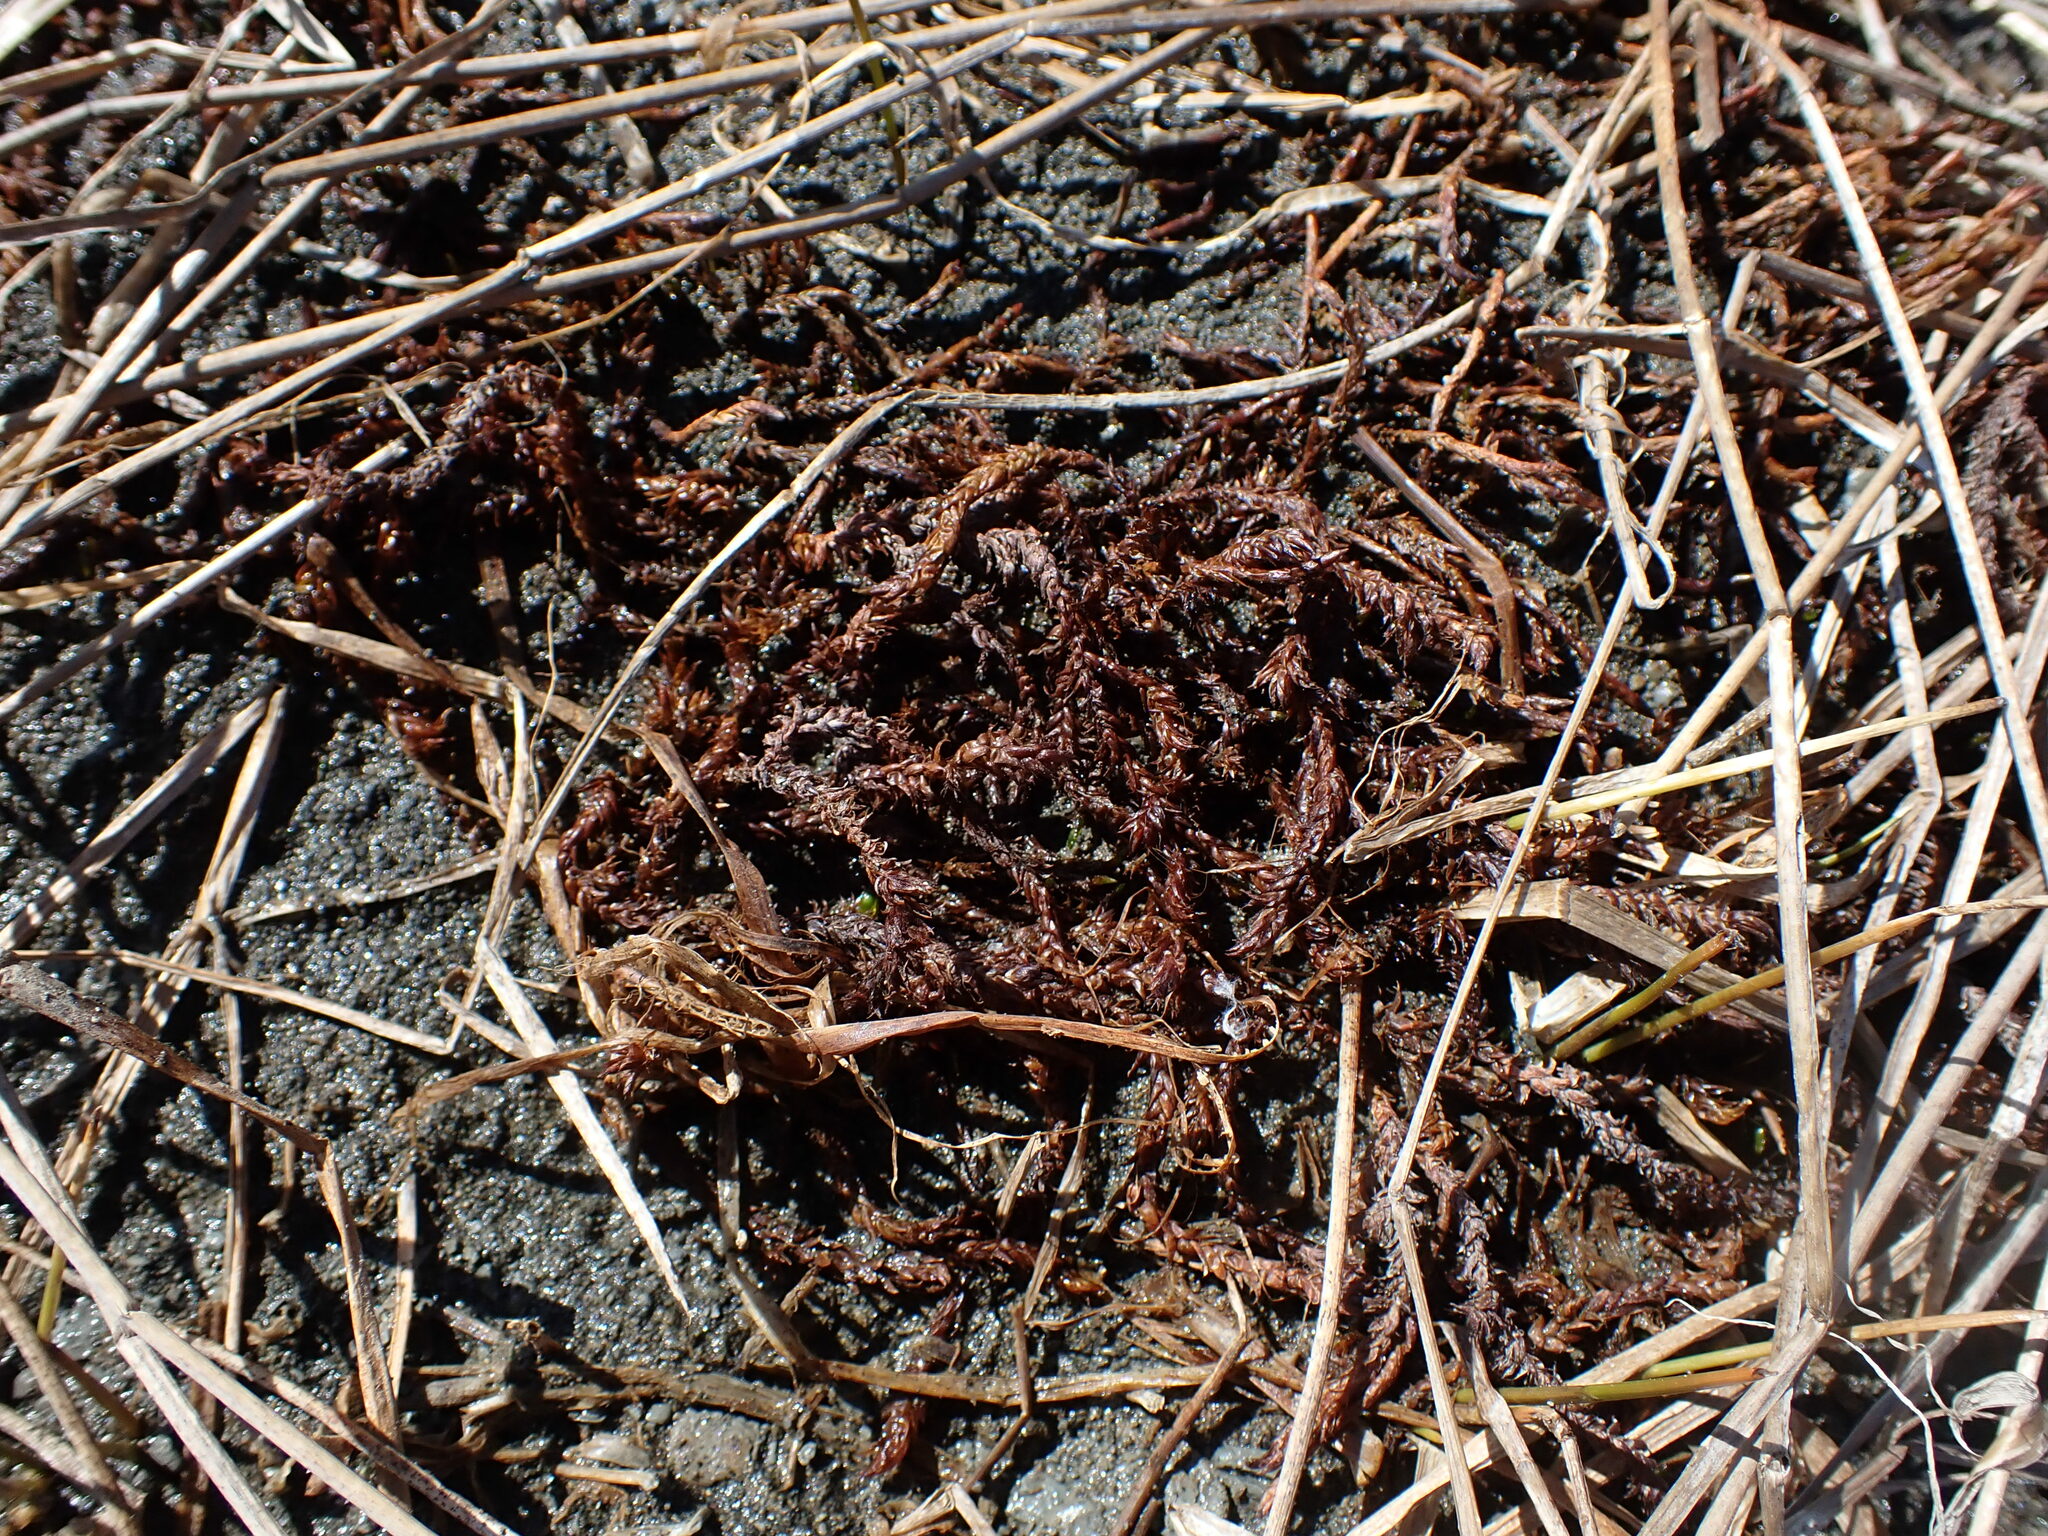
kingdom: Plantae
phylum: Bryophyta
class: Bryopsida
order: Hypnales
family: Scorpidiaceae
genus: Scorpidium
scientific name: Scorpidium scorpioides
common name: Hooked scorpion moss
